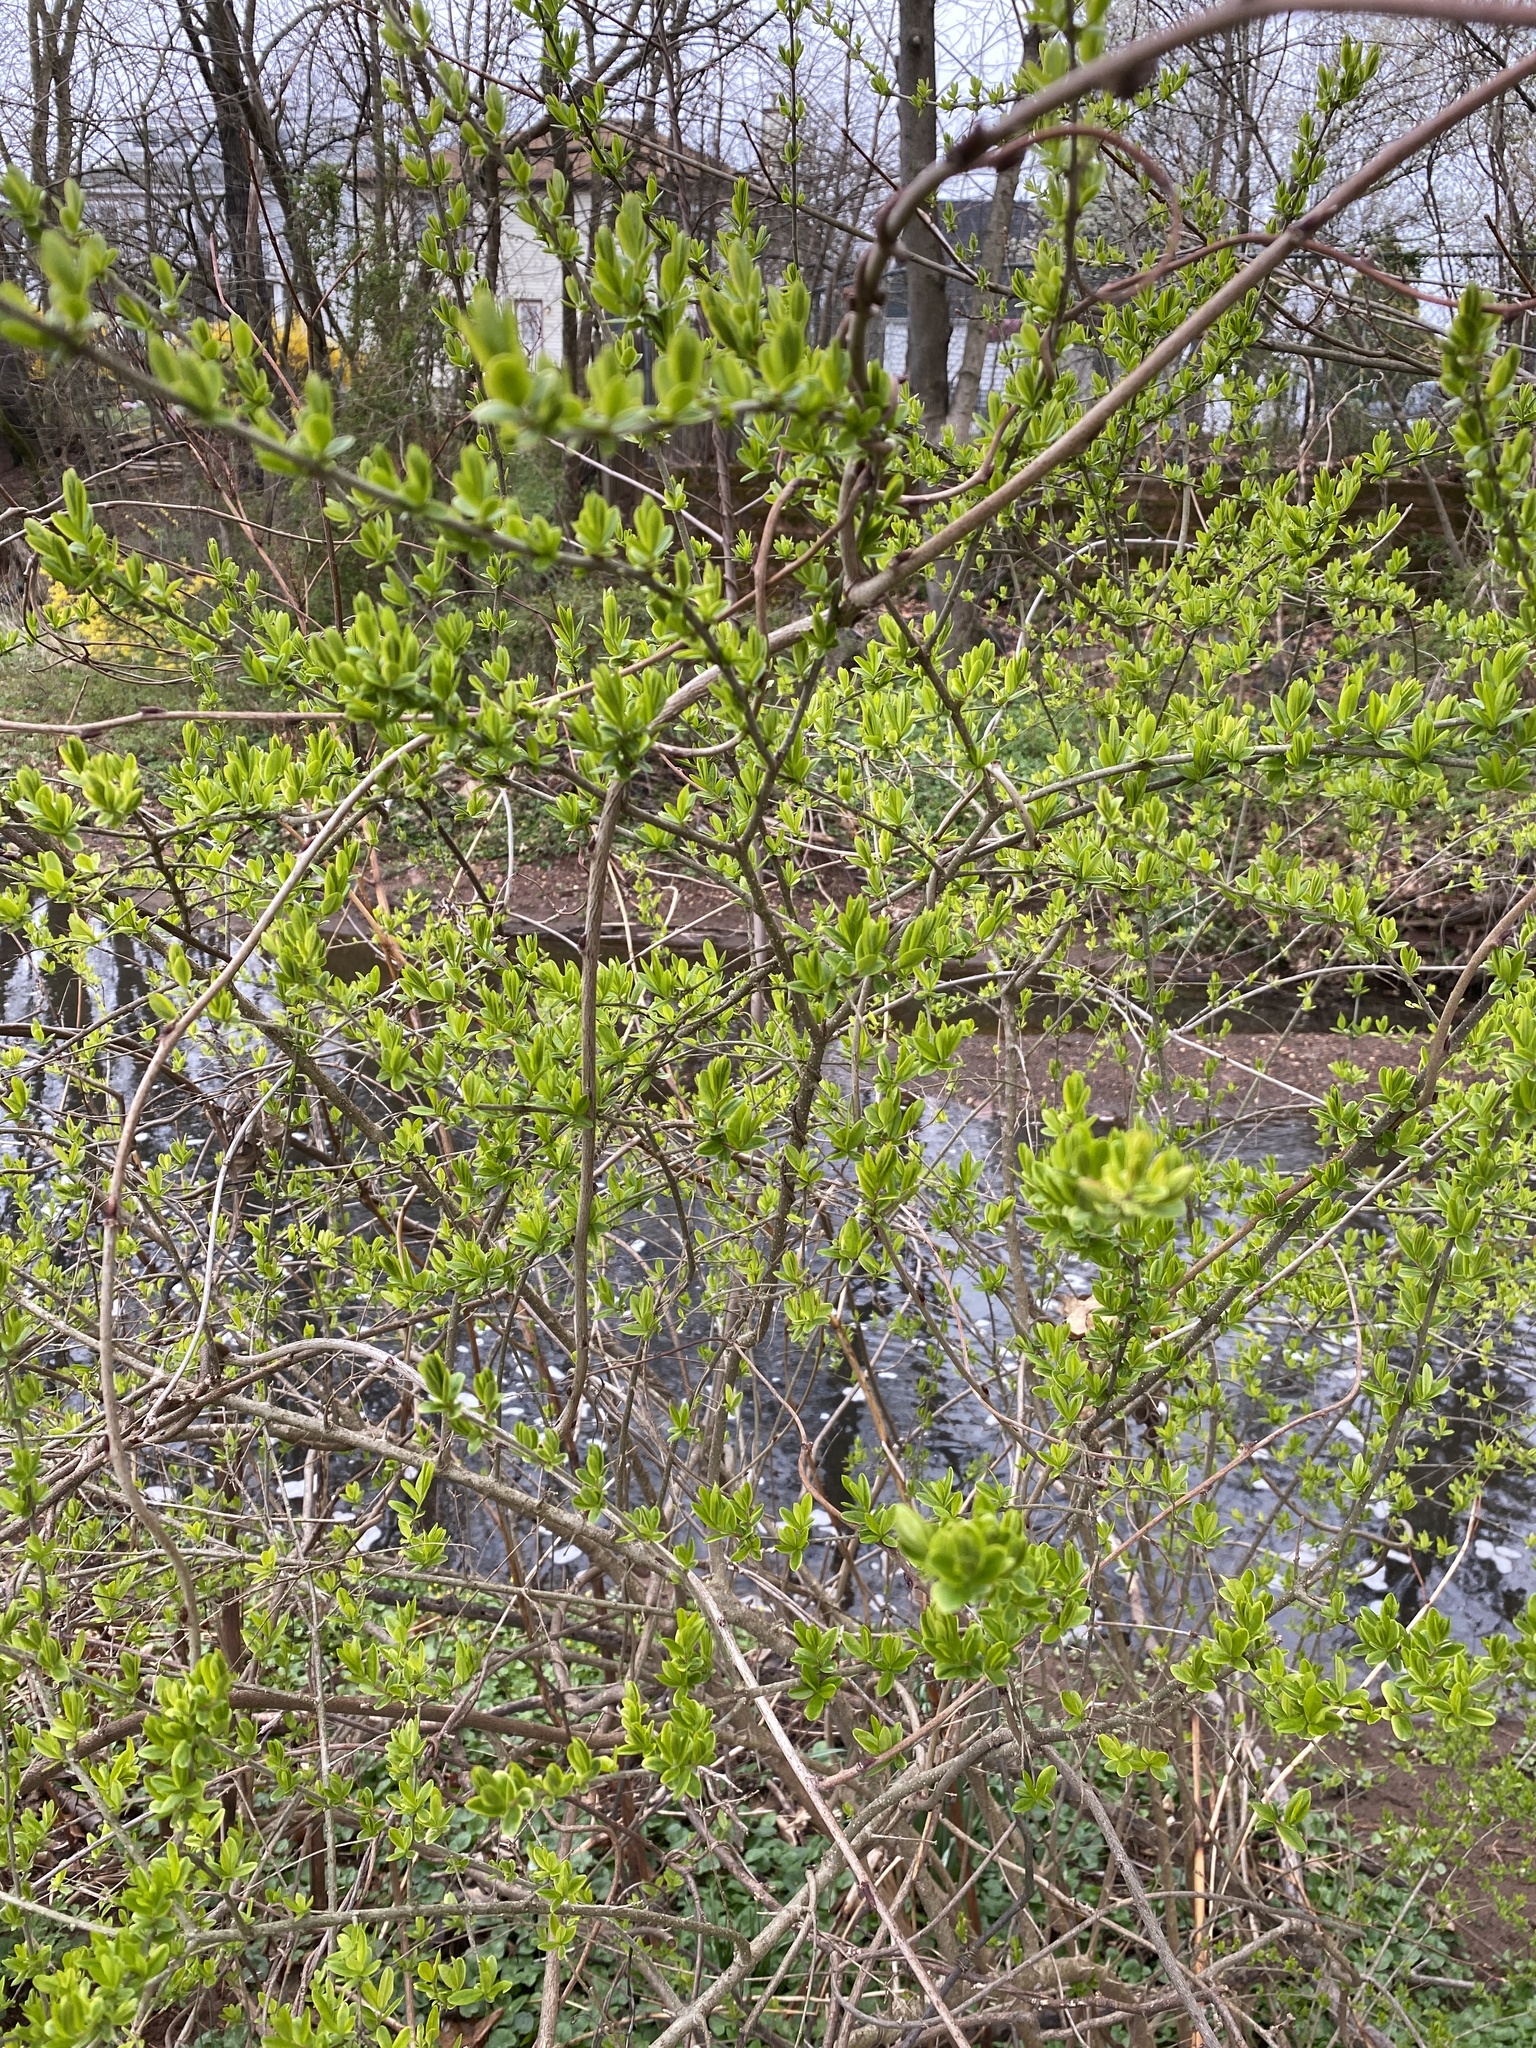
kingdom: Plantae
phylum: Tracheophyta
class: Magnoliopsida
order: Lamiales
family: Oleaceae
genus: Ligustrum
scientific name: Ligustrum obtusifolium
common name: Border privet
